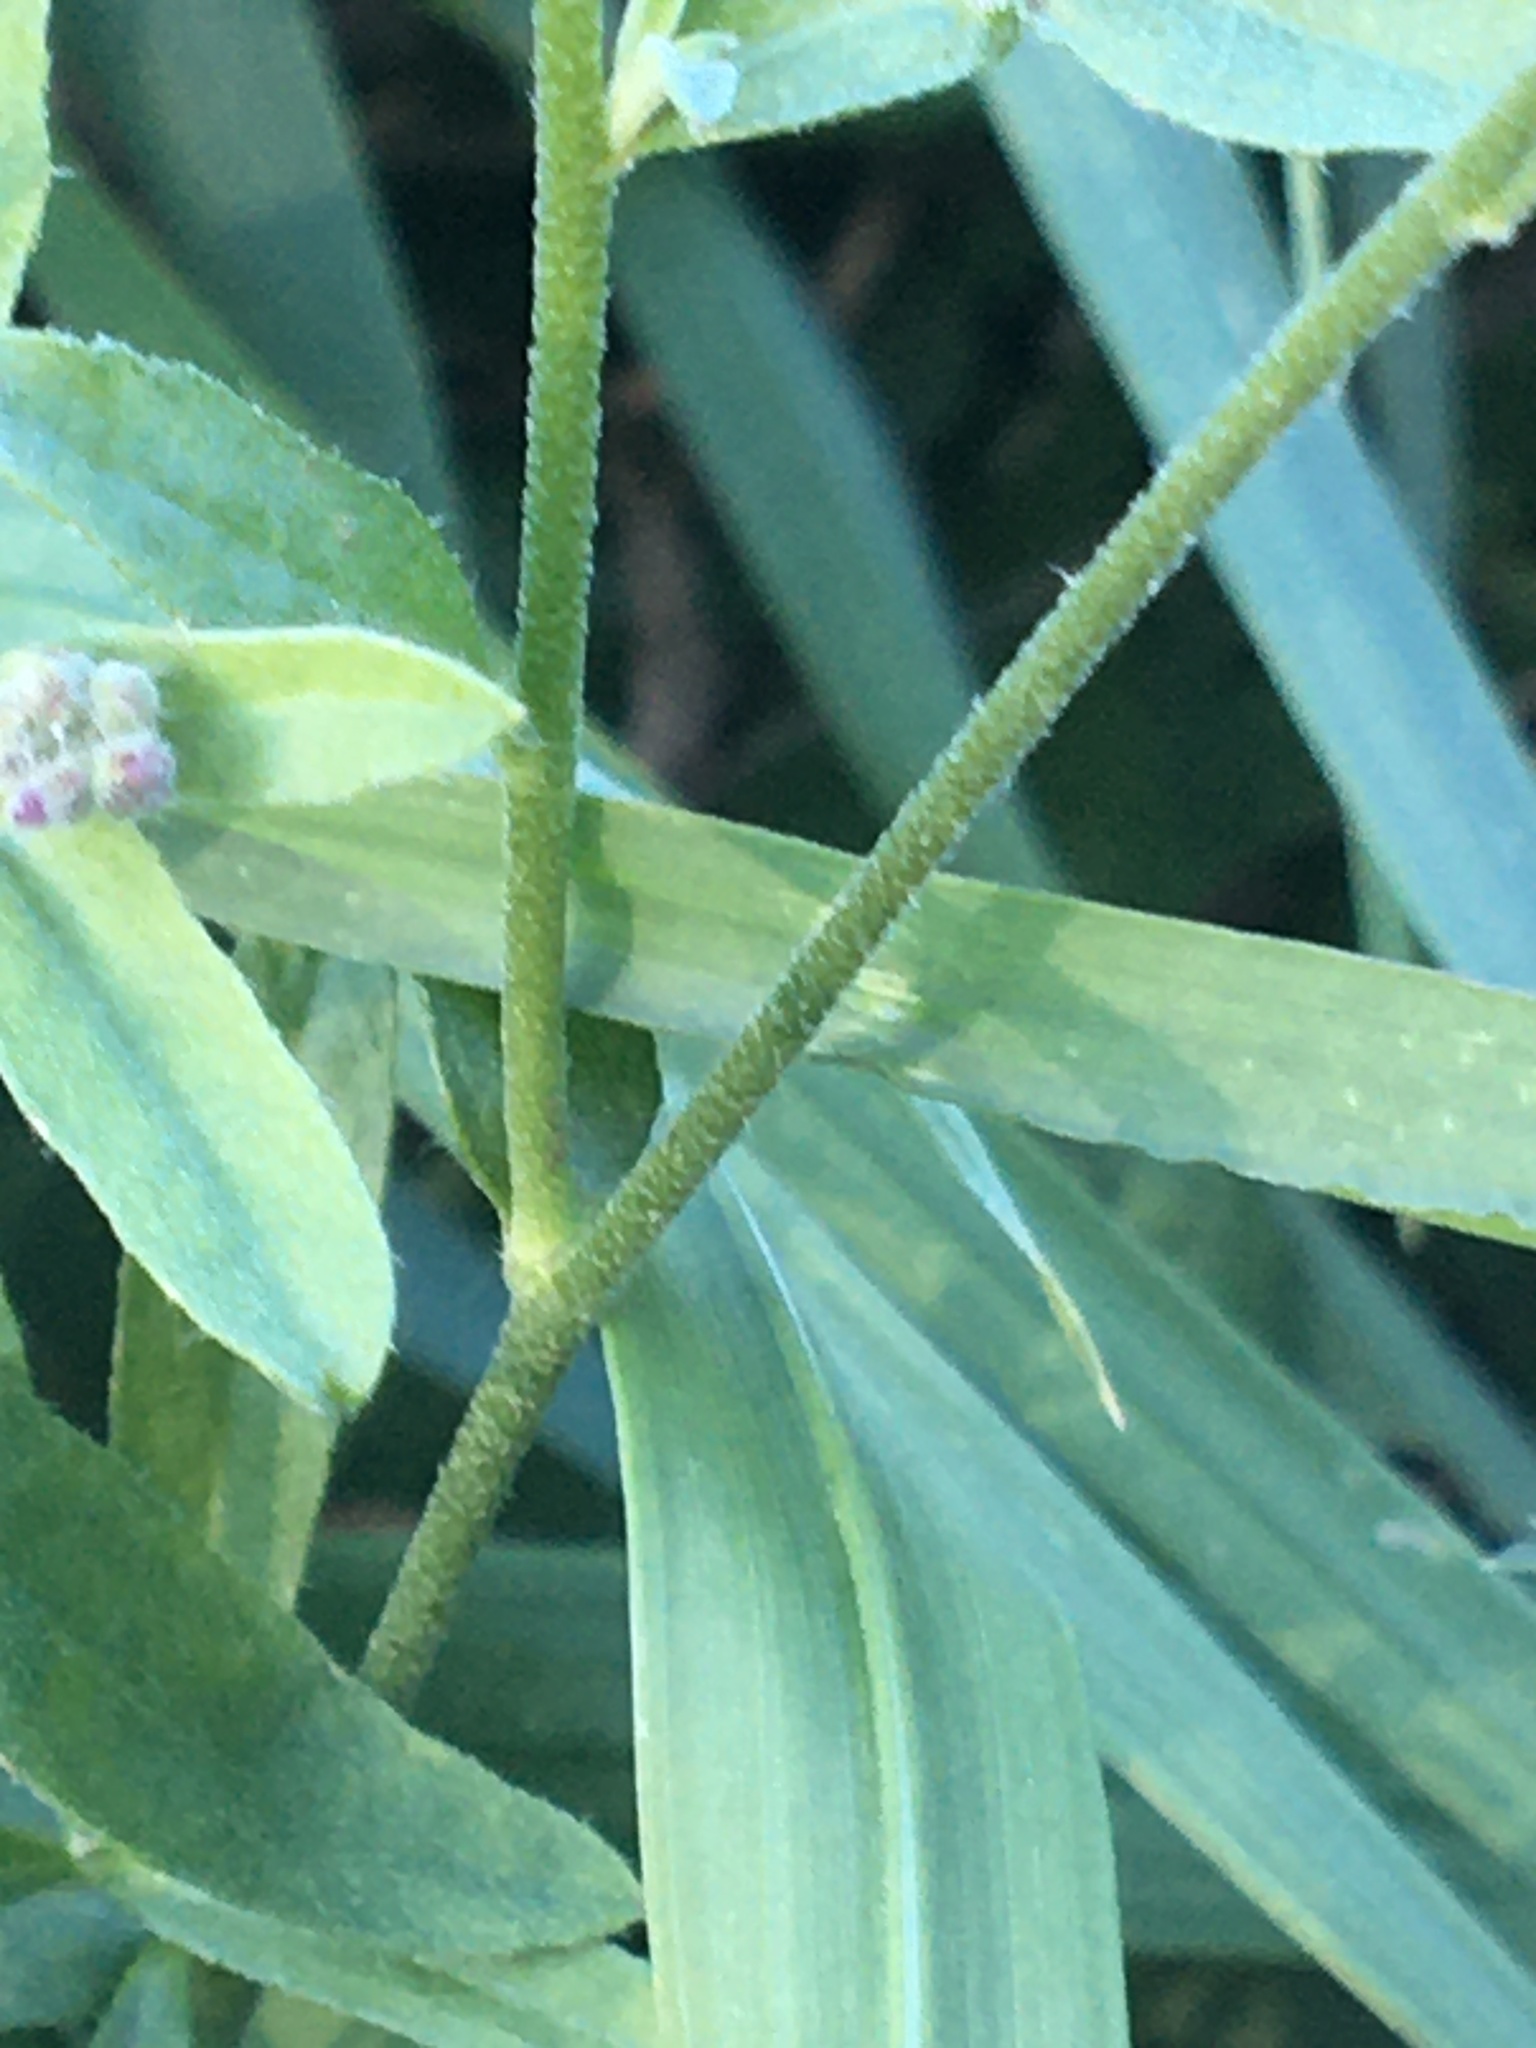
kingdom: Plantae
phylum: Tracheophyta
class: Magnoliopsida
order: Brassicales
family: Brassicaceae
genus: Berteroa
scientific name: Berteroa incana
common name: Hoary alison
